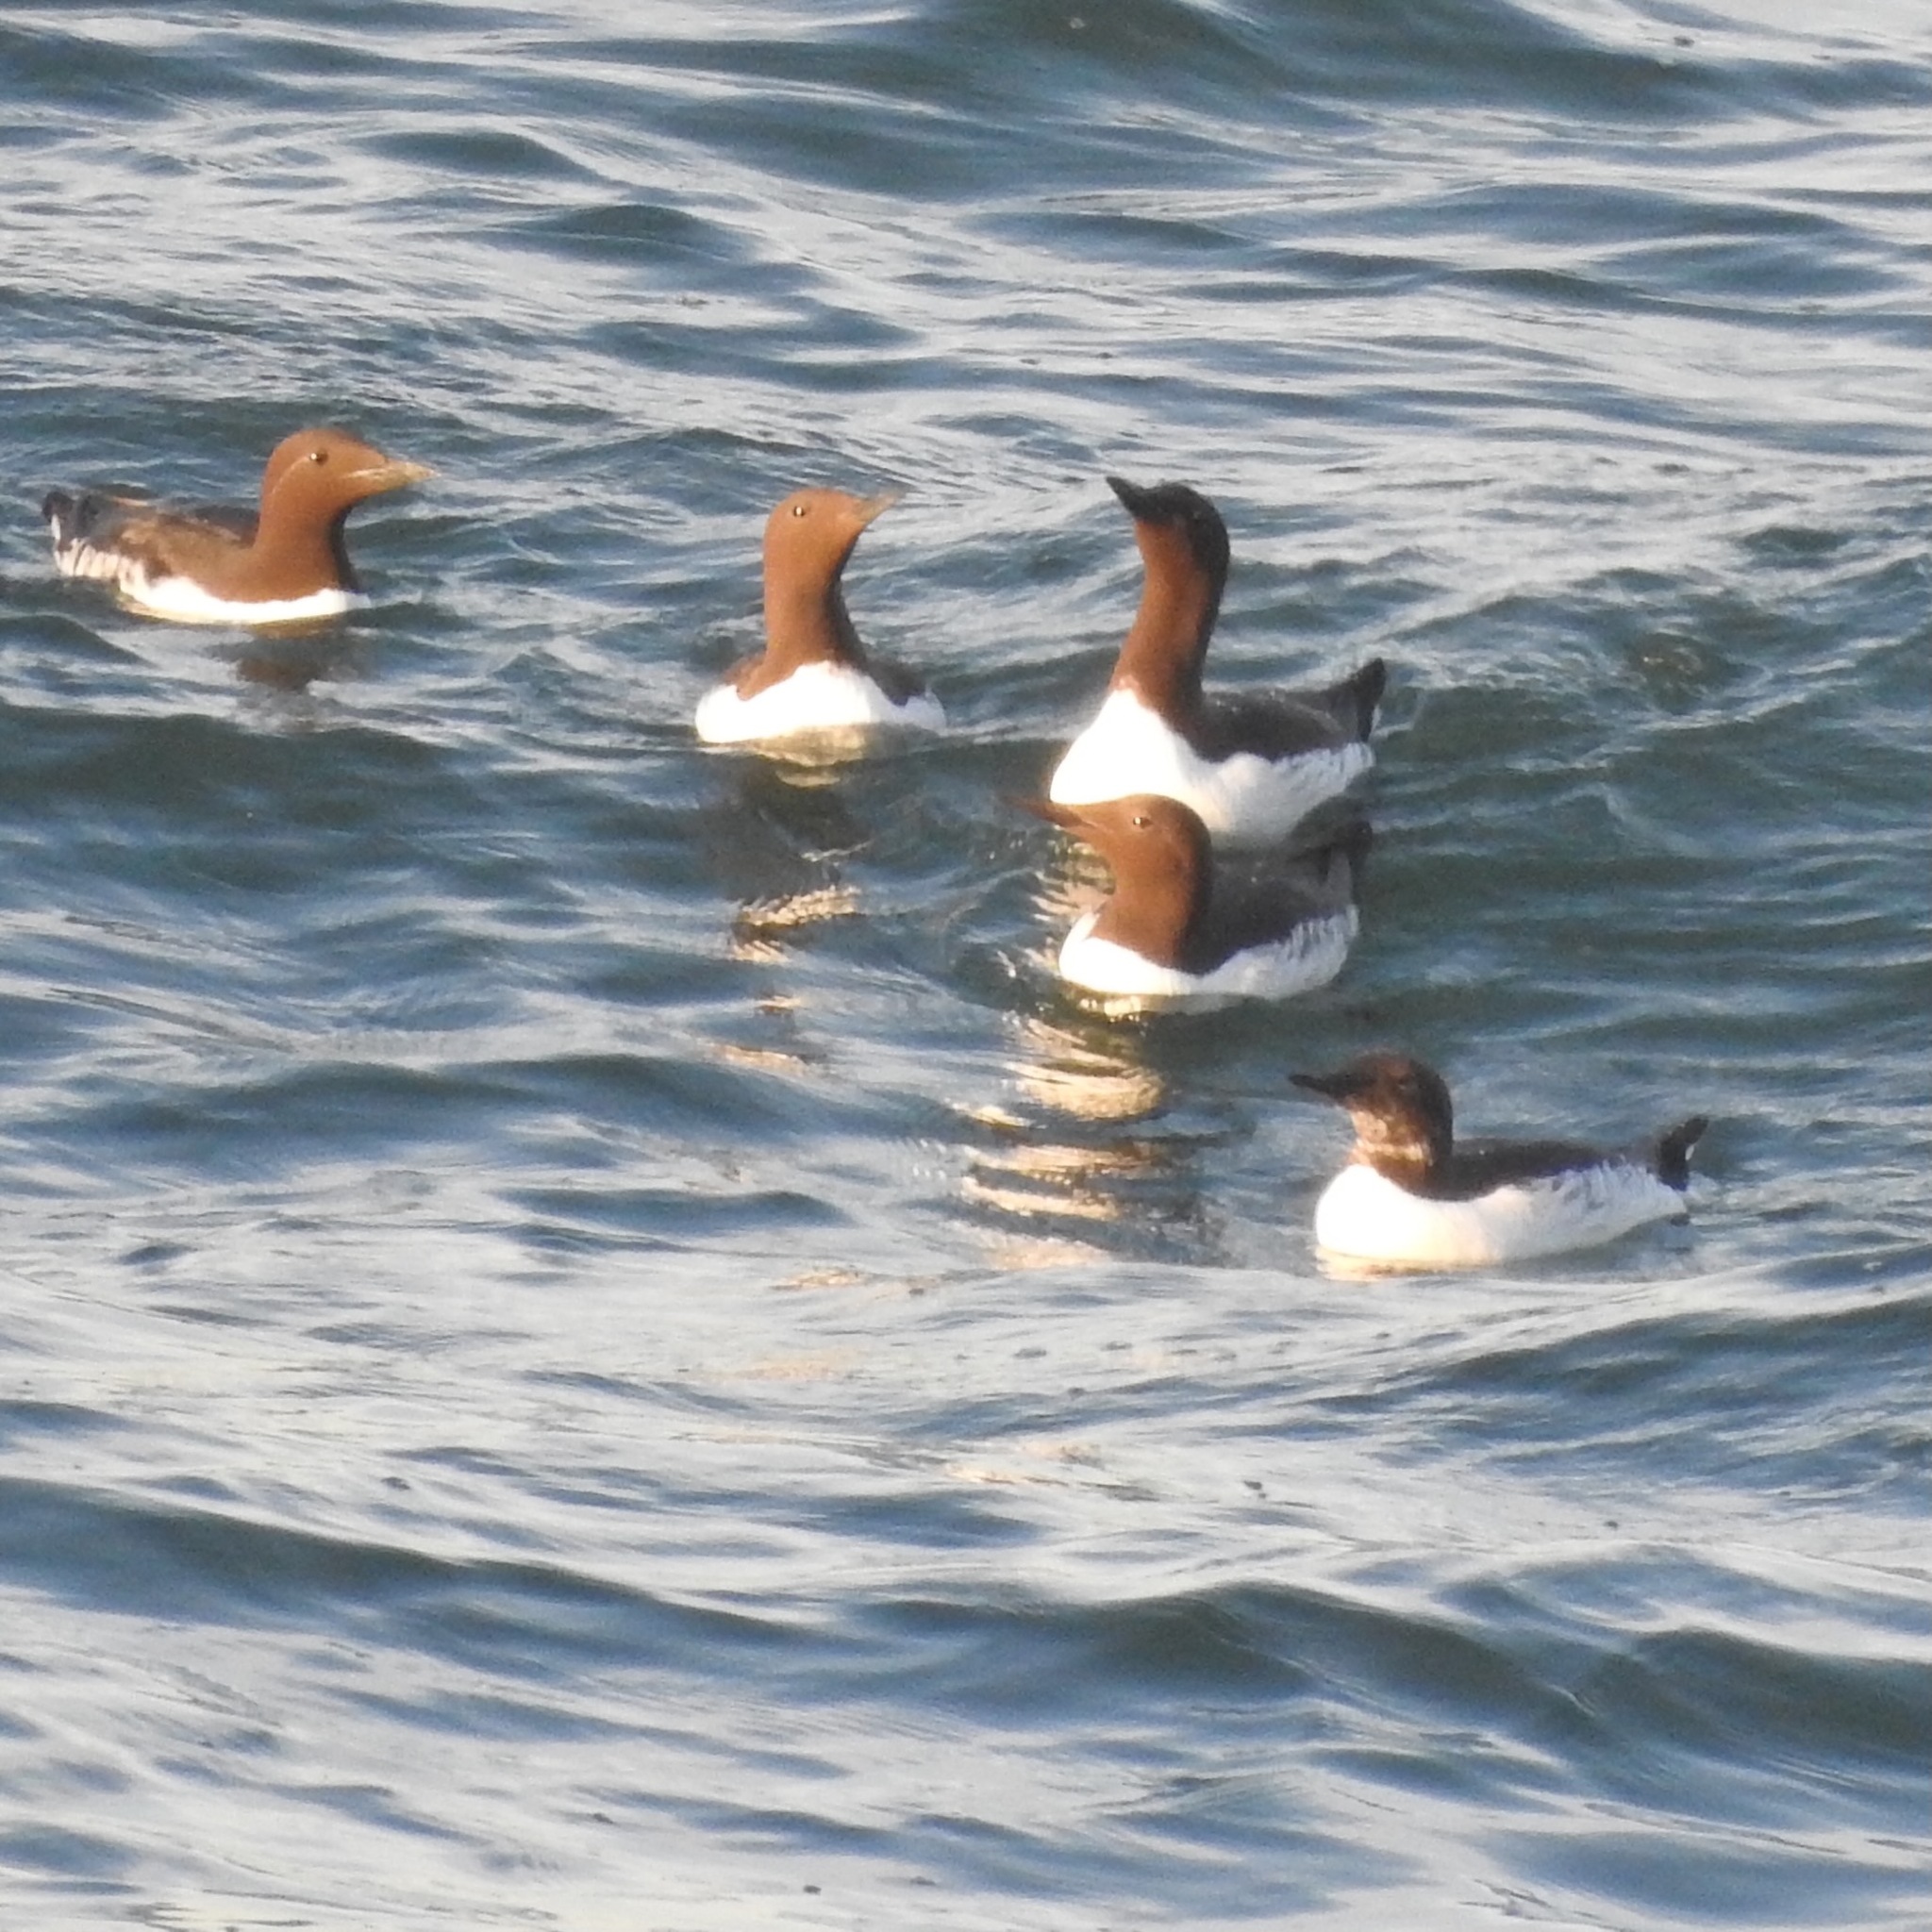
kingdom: Animalia
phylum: Chordata
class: Aves
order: Charadriiformes
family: Alcidae
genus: Uria
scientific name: Uria aalge
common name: Common murre
